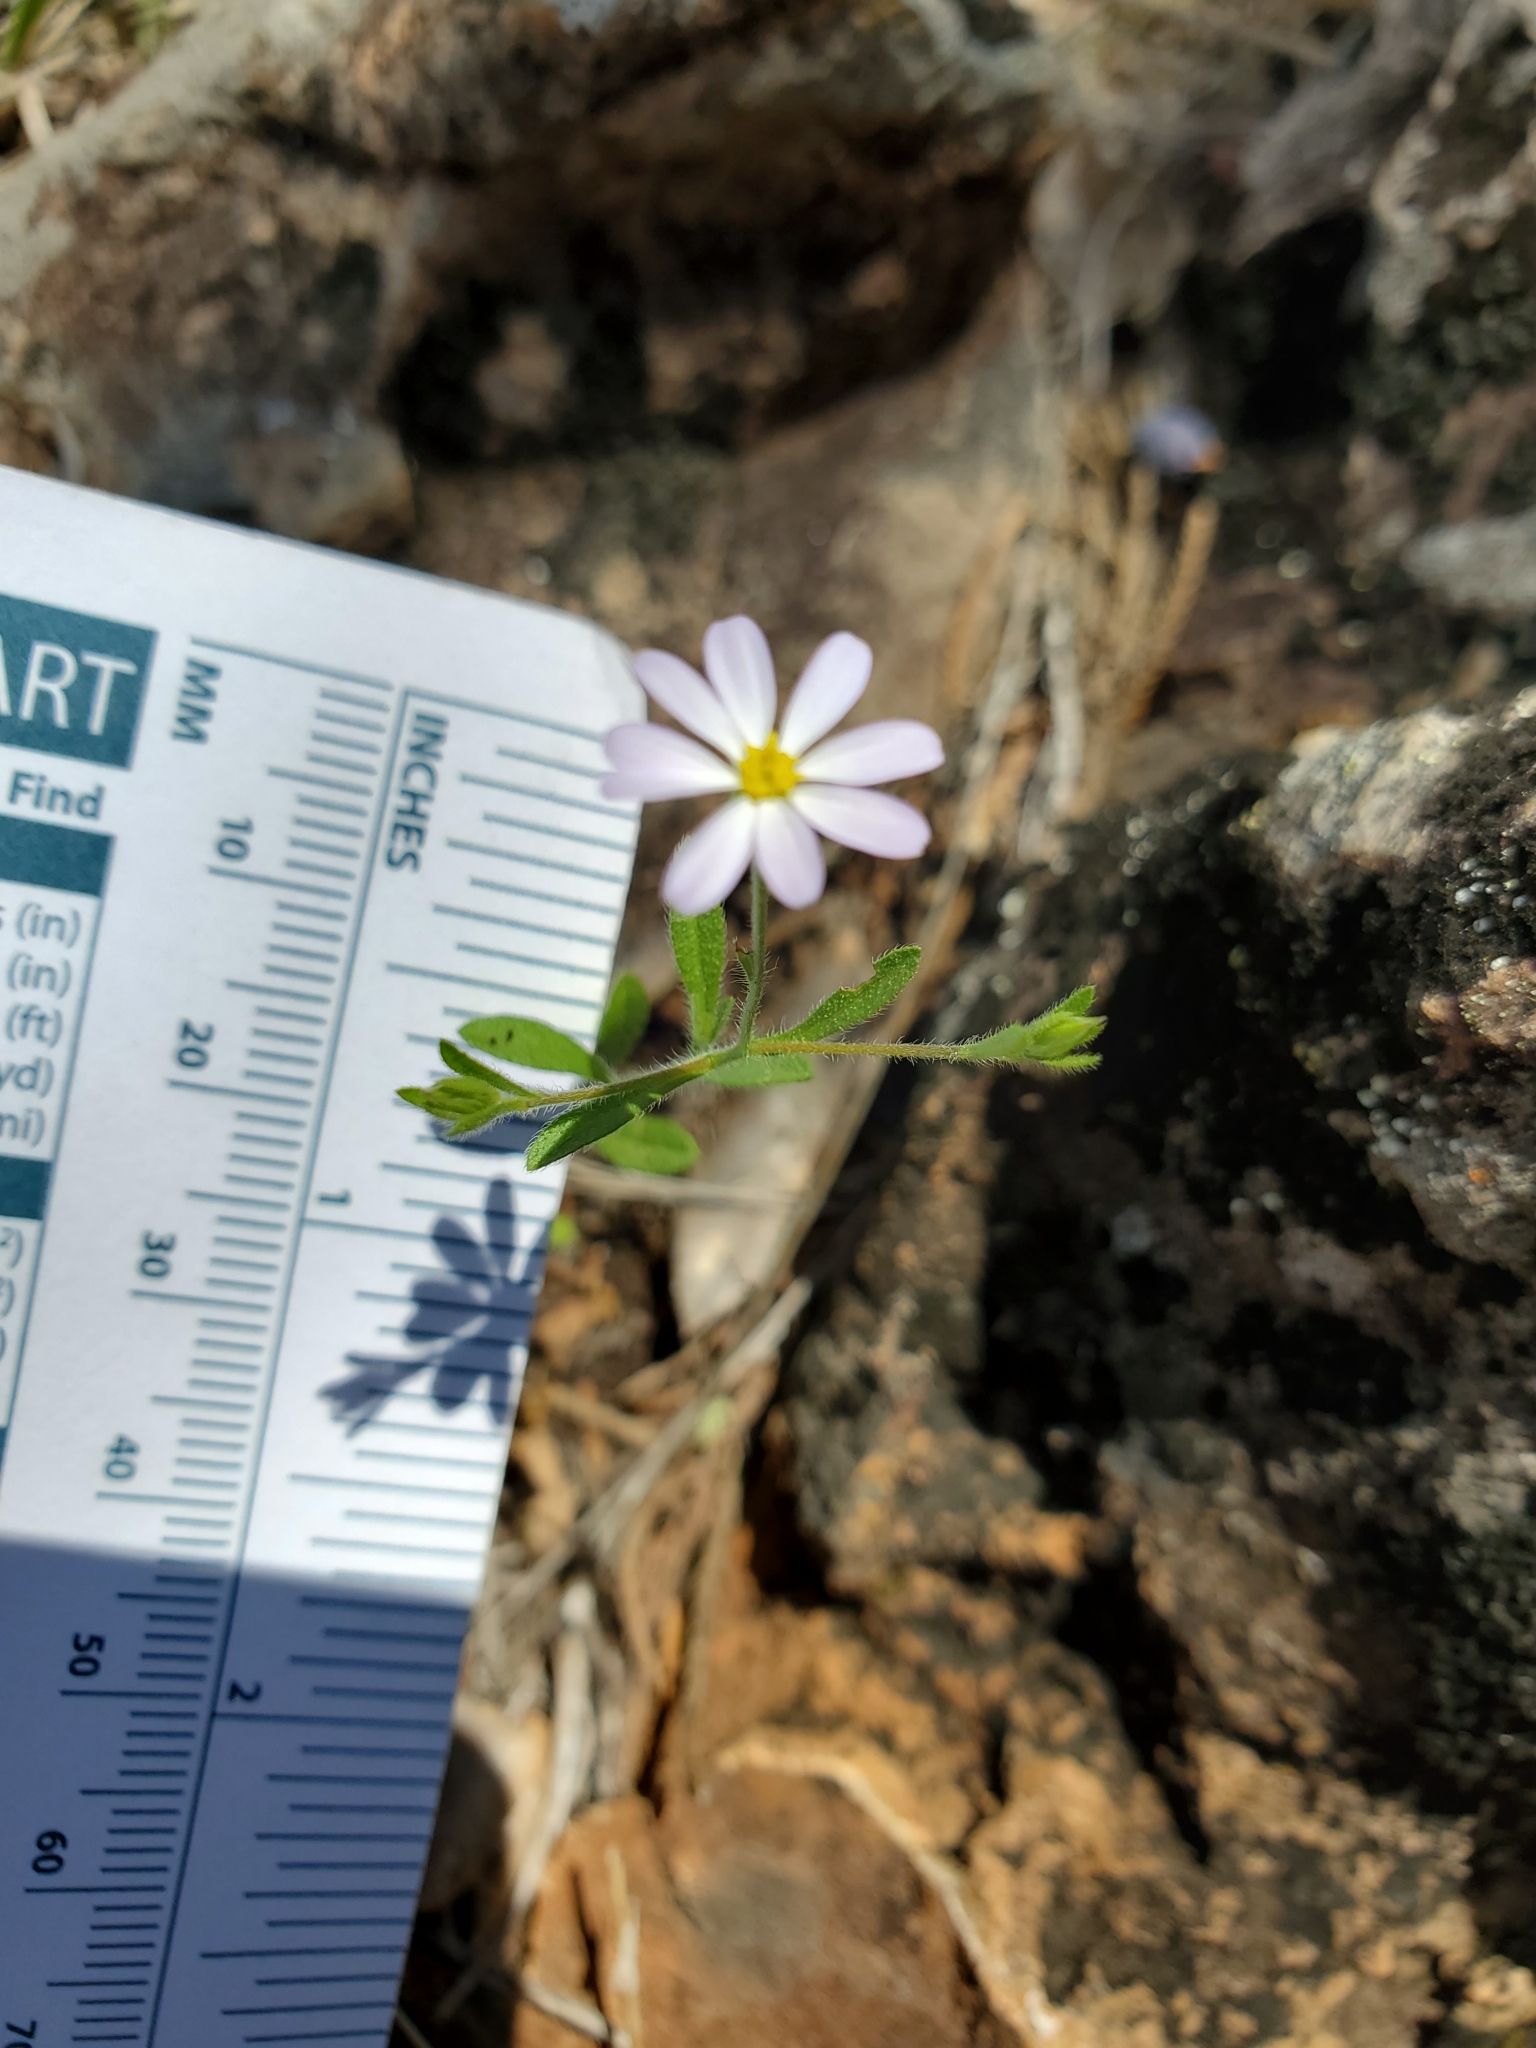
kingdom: Plantae
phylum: Tracheophyta
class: Magnoliopsida
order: Asterales
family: Asteraceae
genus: Chaetopappa
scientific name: Chaetopappa asteroides
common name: Tiny lazy daisy
